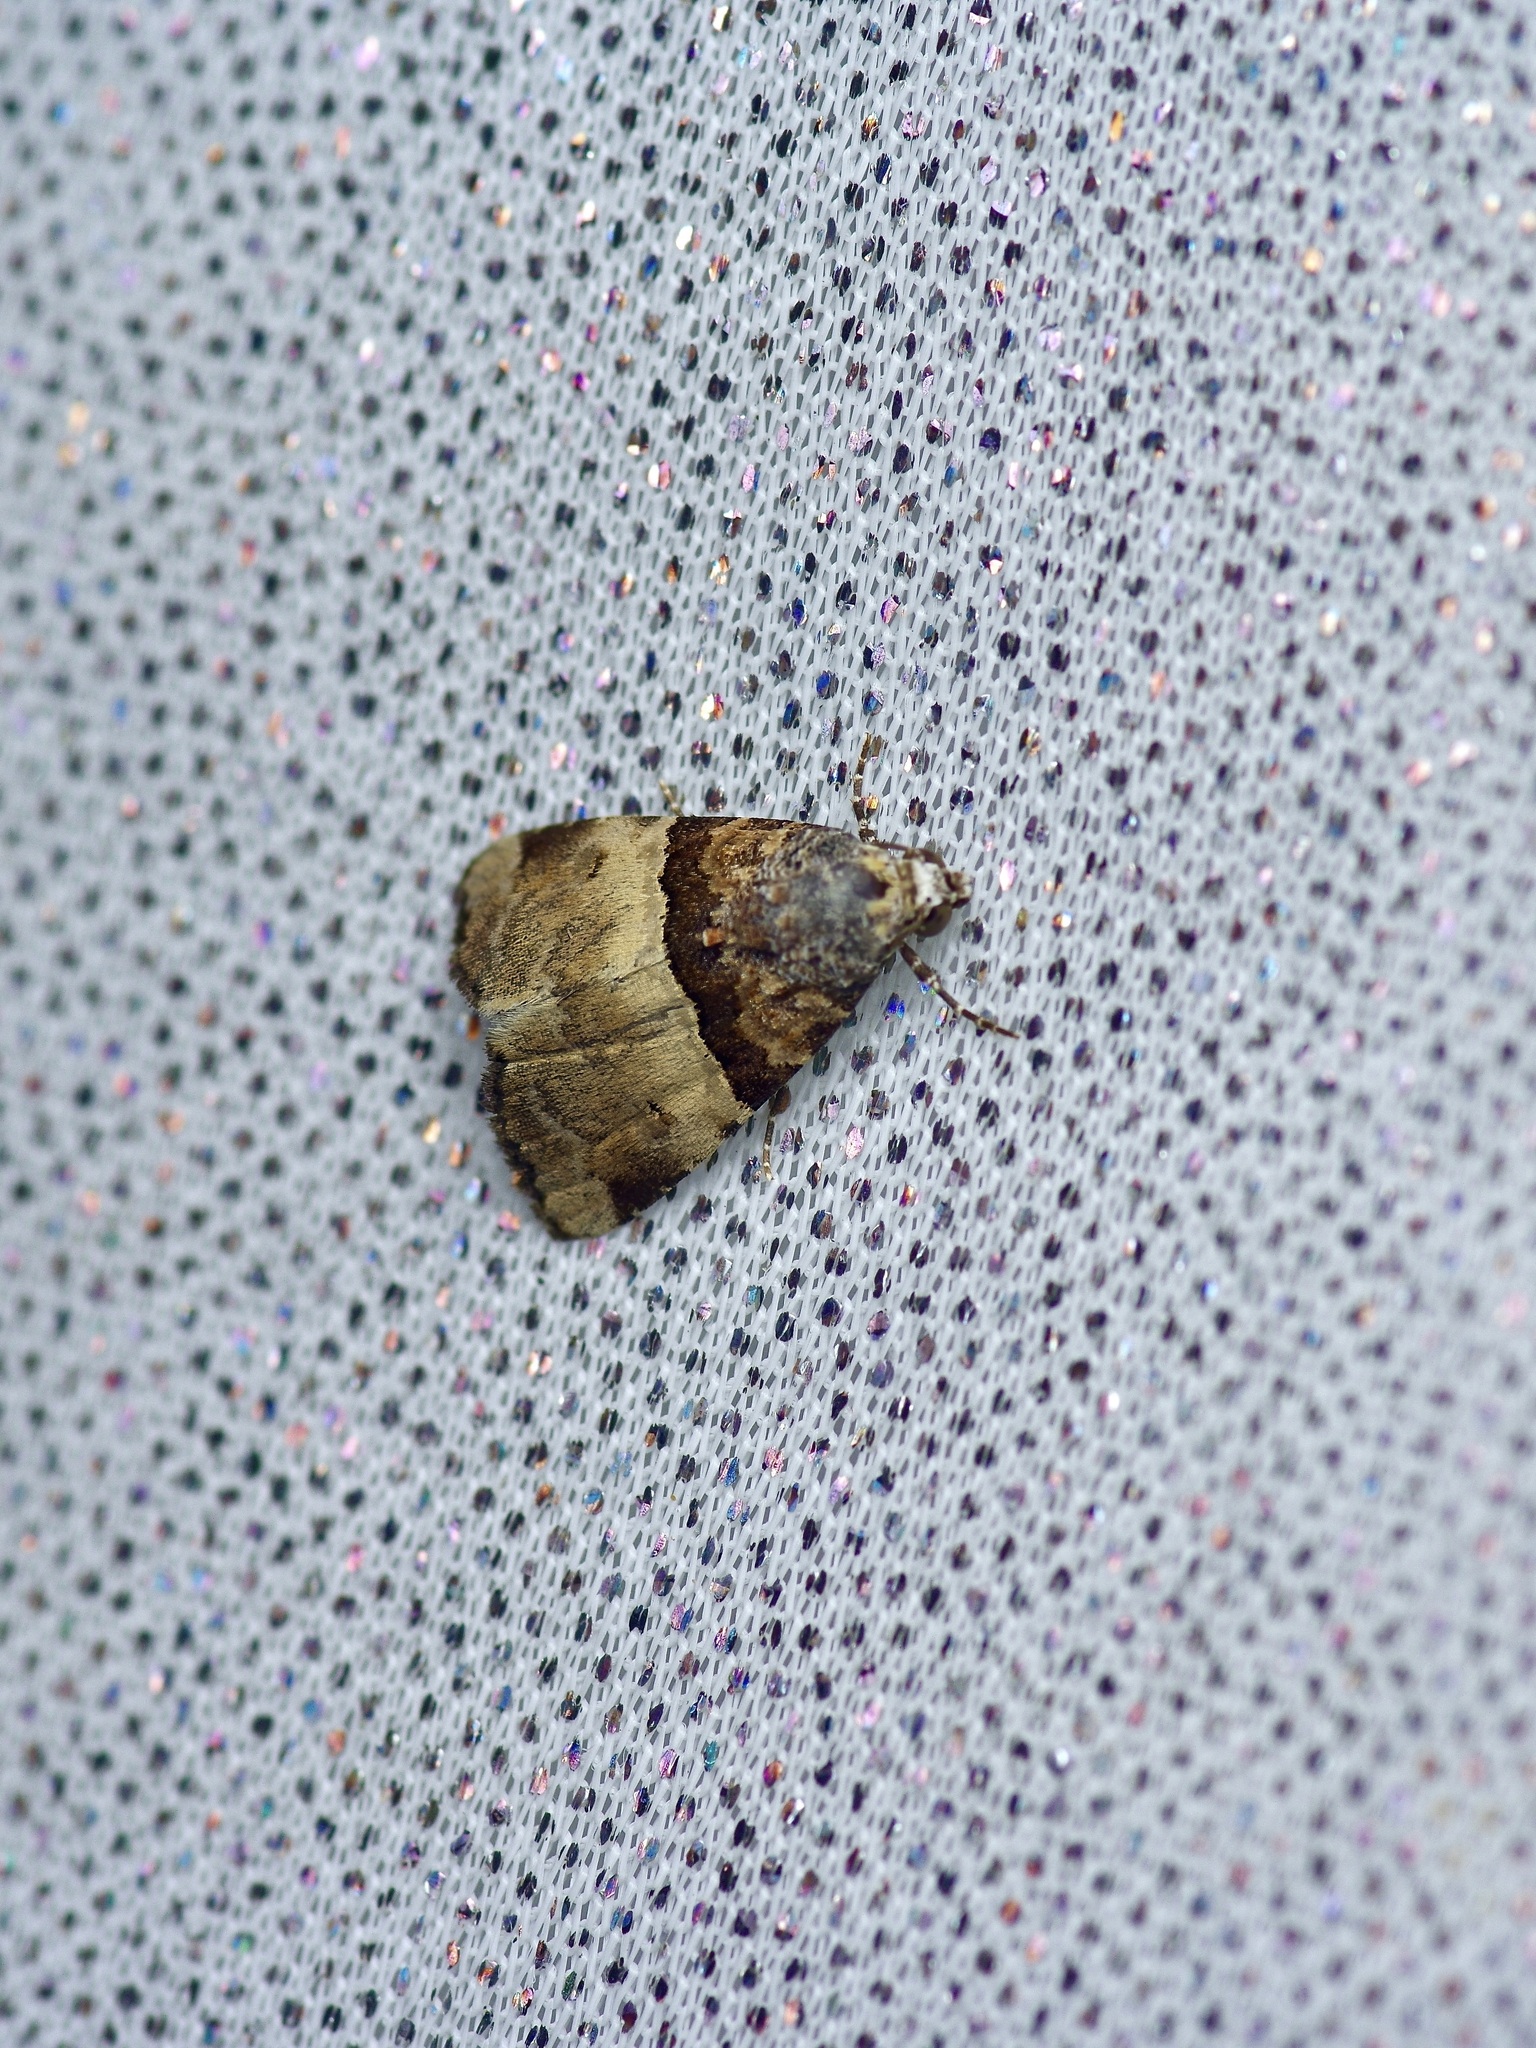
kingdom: Animalia
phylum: Arthropoda
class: Insecta
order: Lepidoptera
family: Noctuidae
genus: Cobubatha
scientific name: Cobubatha dividua
